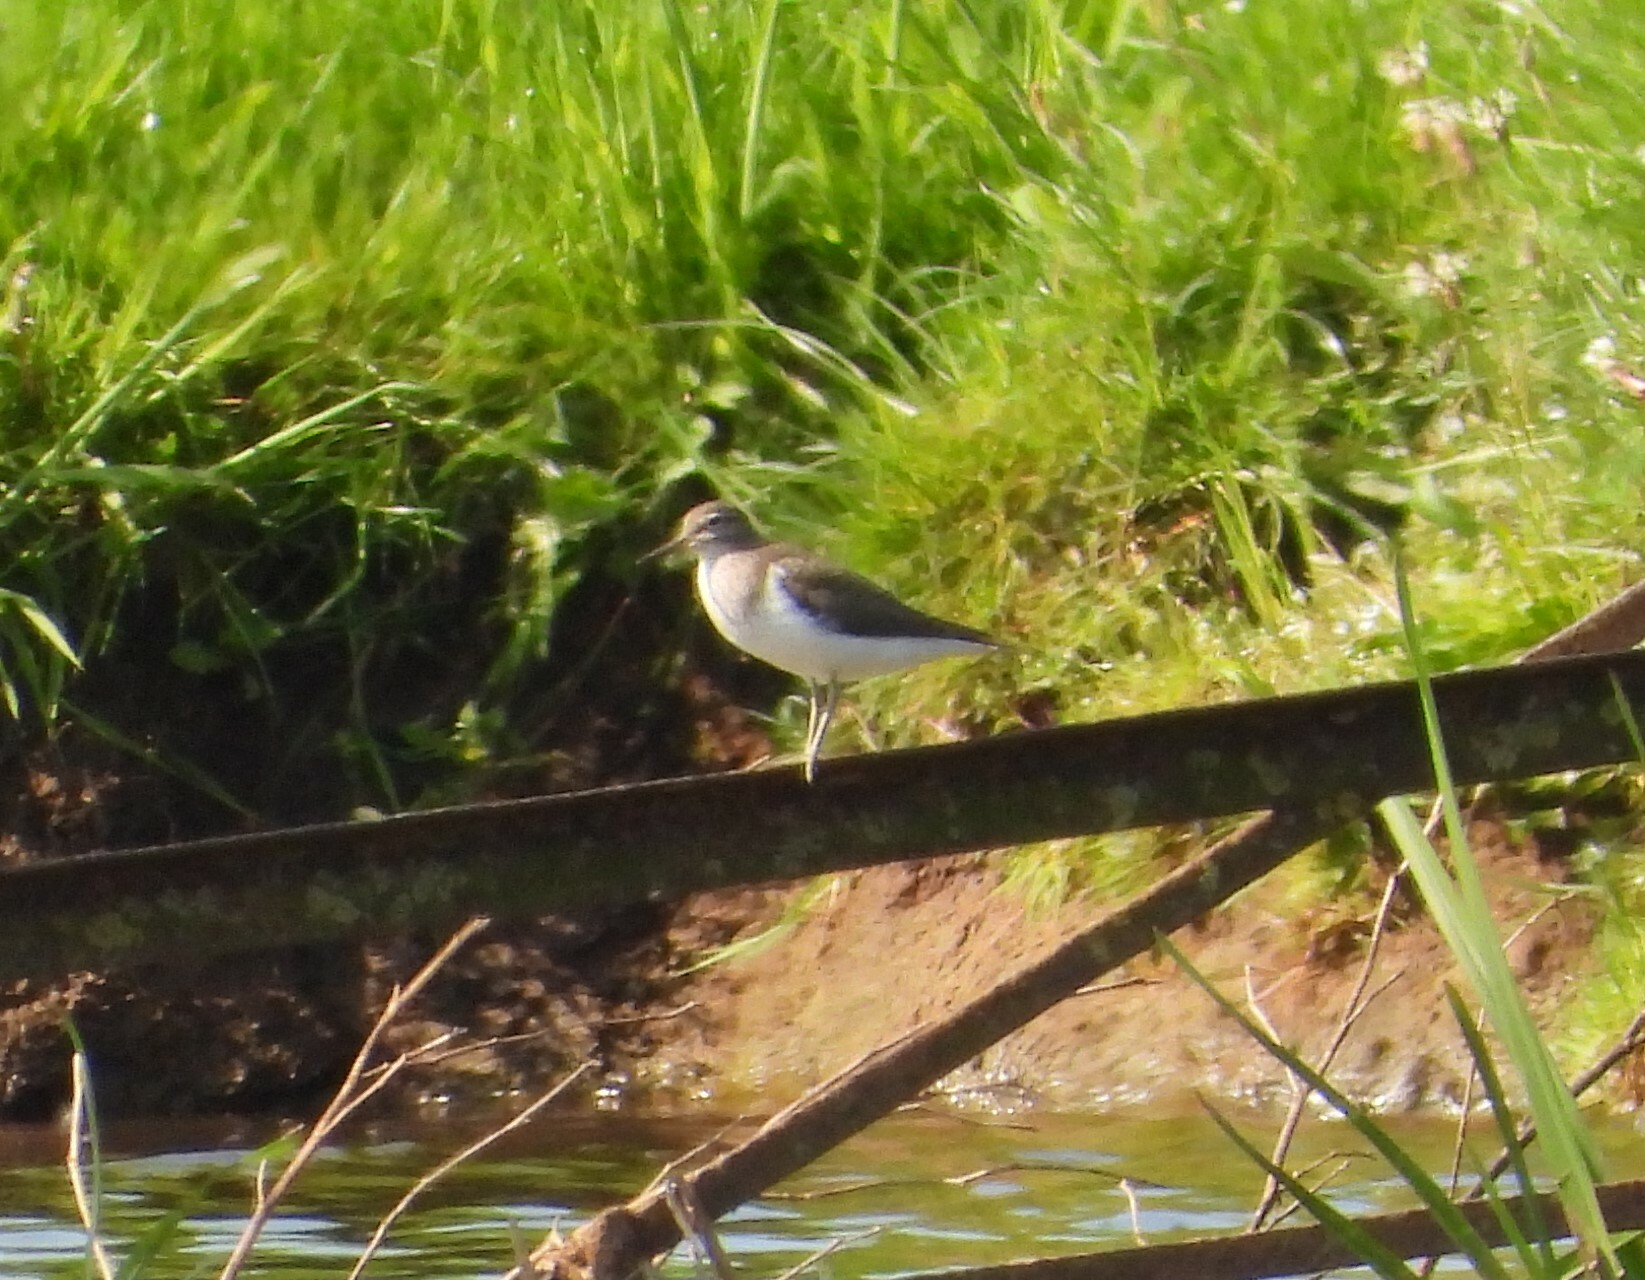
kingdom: Animalia
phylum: Chordata
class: Aves
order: Charadriiformes
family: Scolopacidae
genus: Actitis
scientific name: Actitis hypoleucos
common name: Common sandpiper
